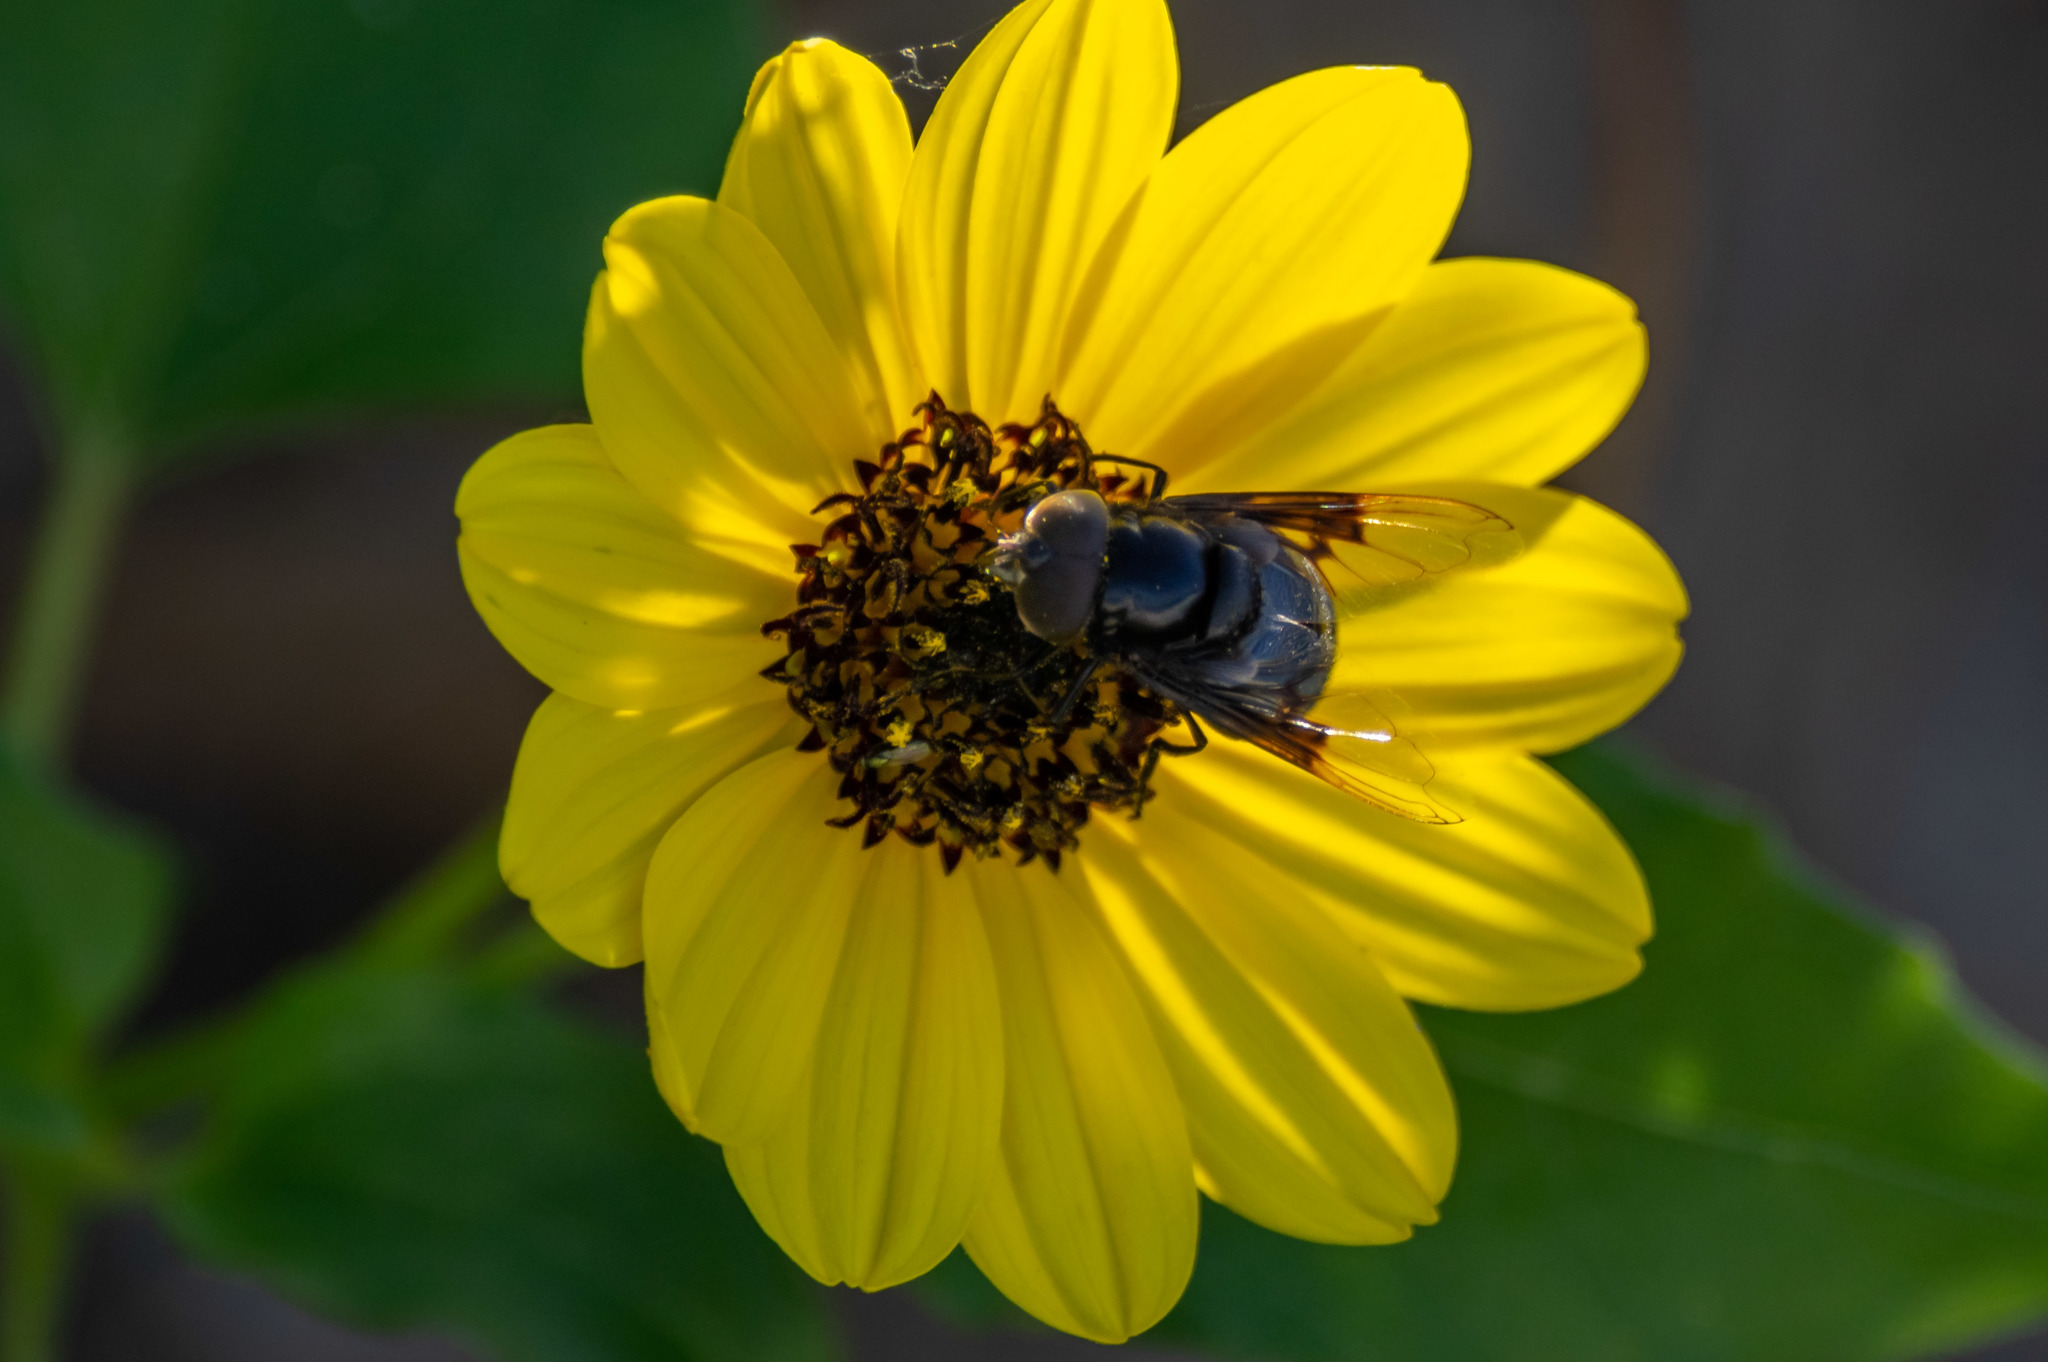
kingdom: Animalia
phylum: Arthropoda
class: Insecta
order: Diptera
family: Syrphidae
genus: Copestylum
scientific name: Copestylum mexicanum
